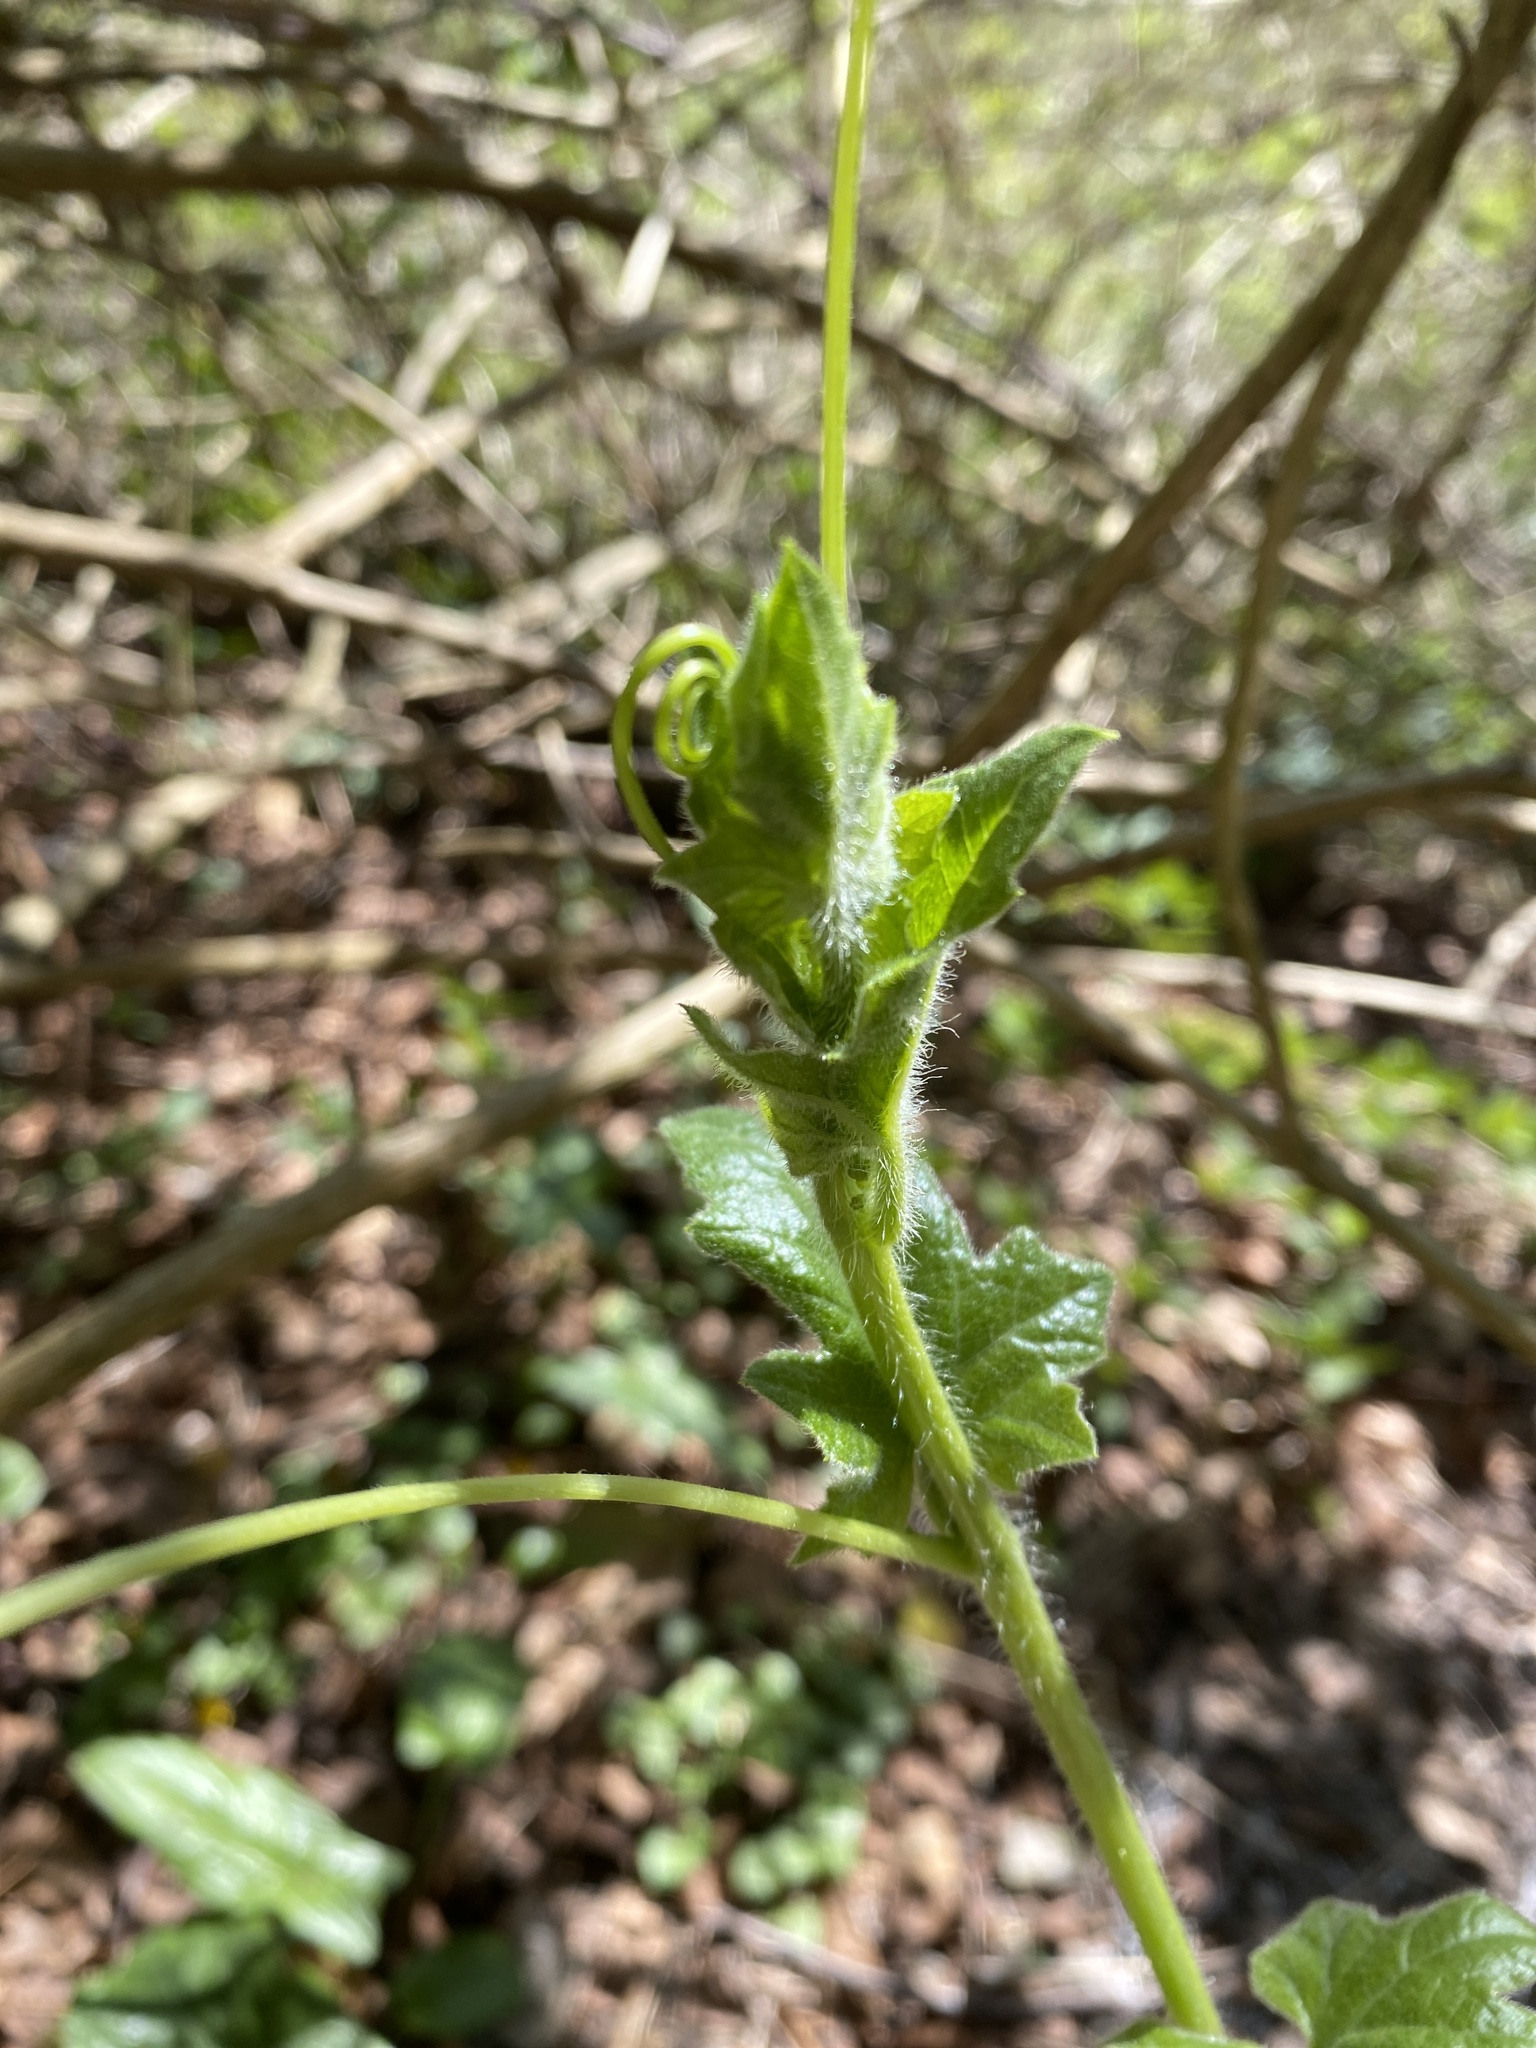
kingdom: Plantae
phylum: Tracheophyta
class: Magnoliopsida
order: Cucurbitales
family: Cucurbitaceae
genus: Bryonia
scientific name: Bryonia cretica
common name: Cretan bryony
